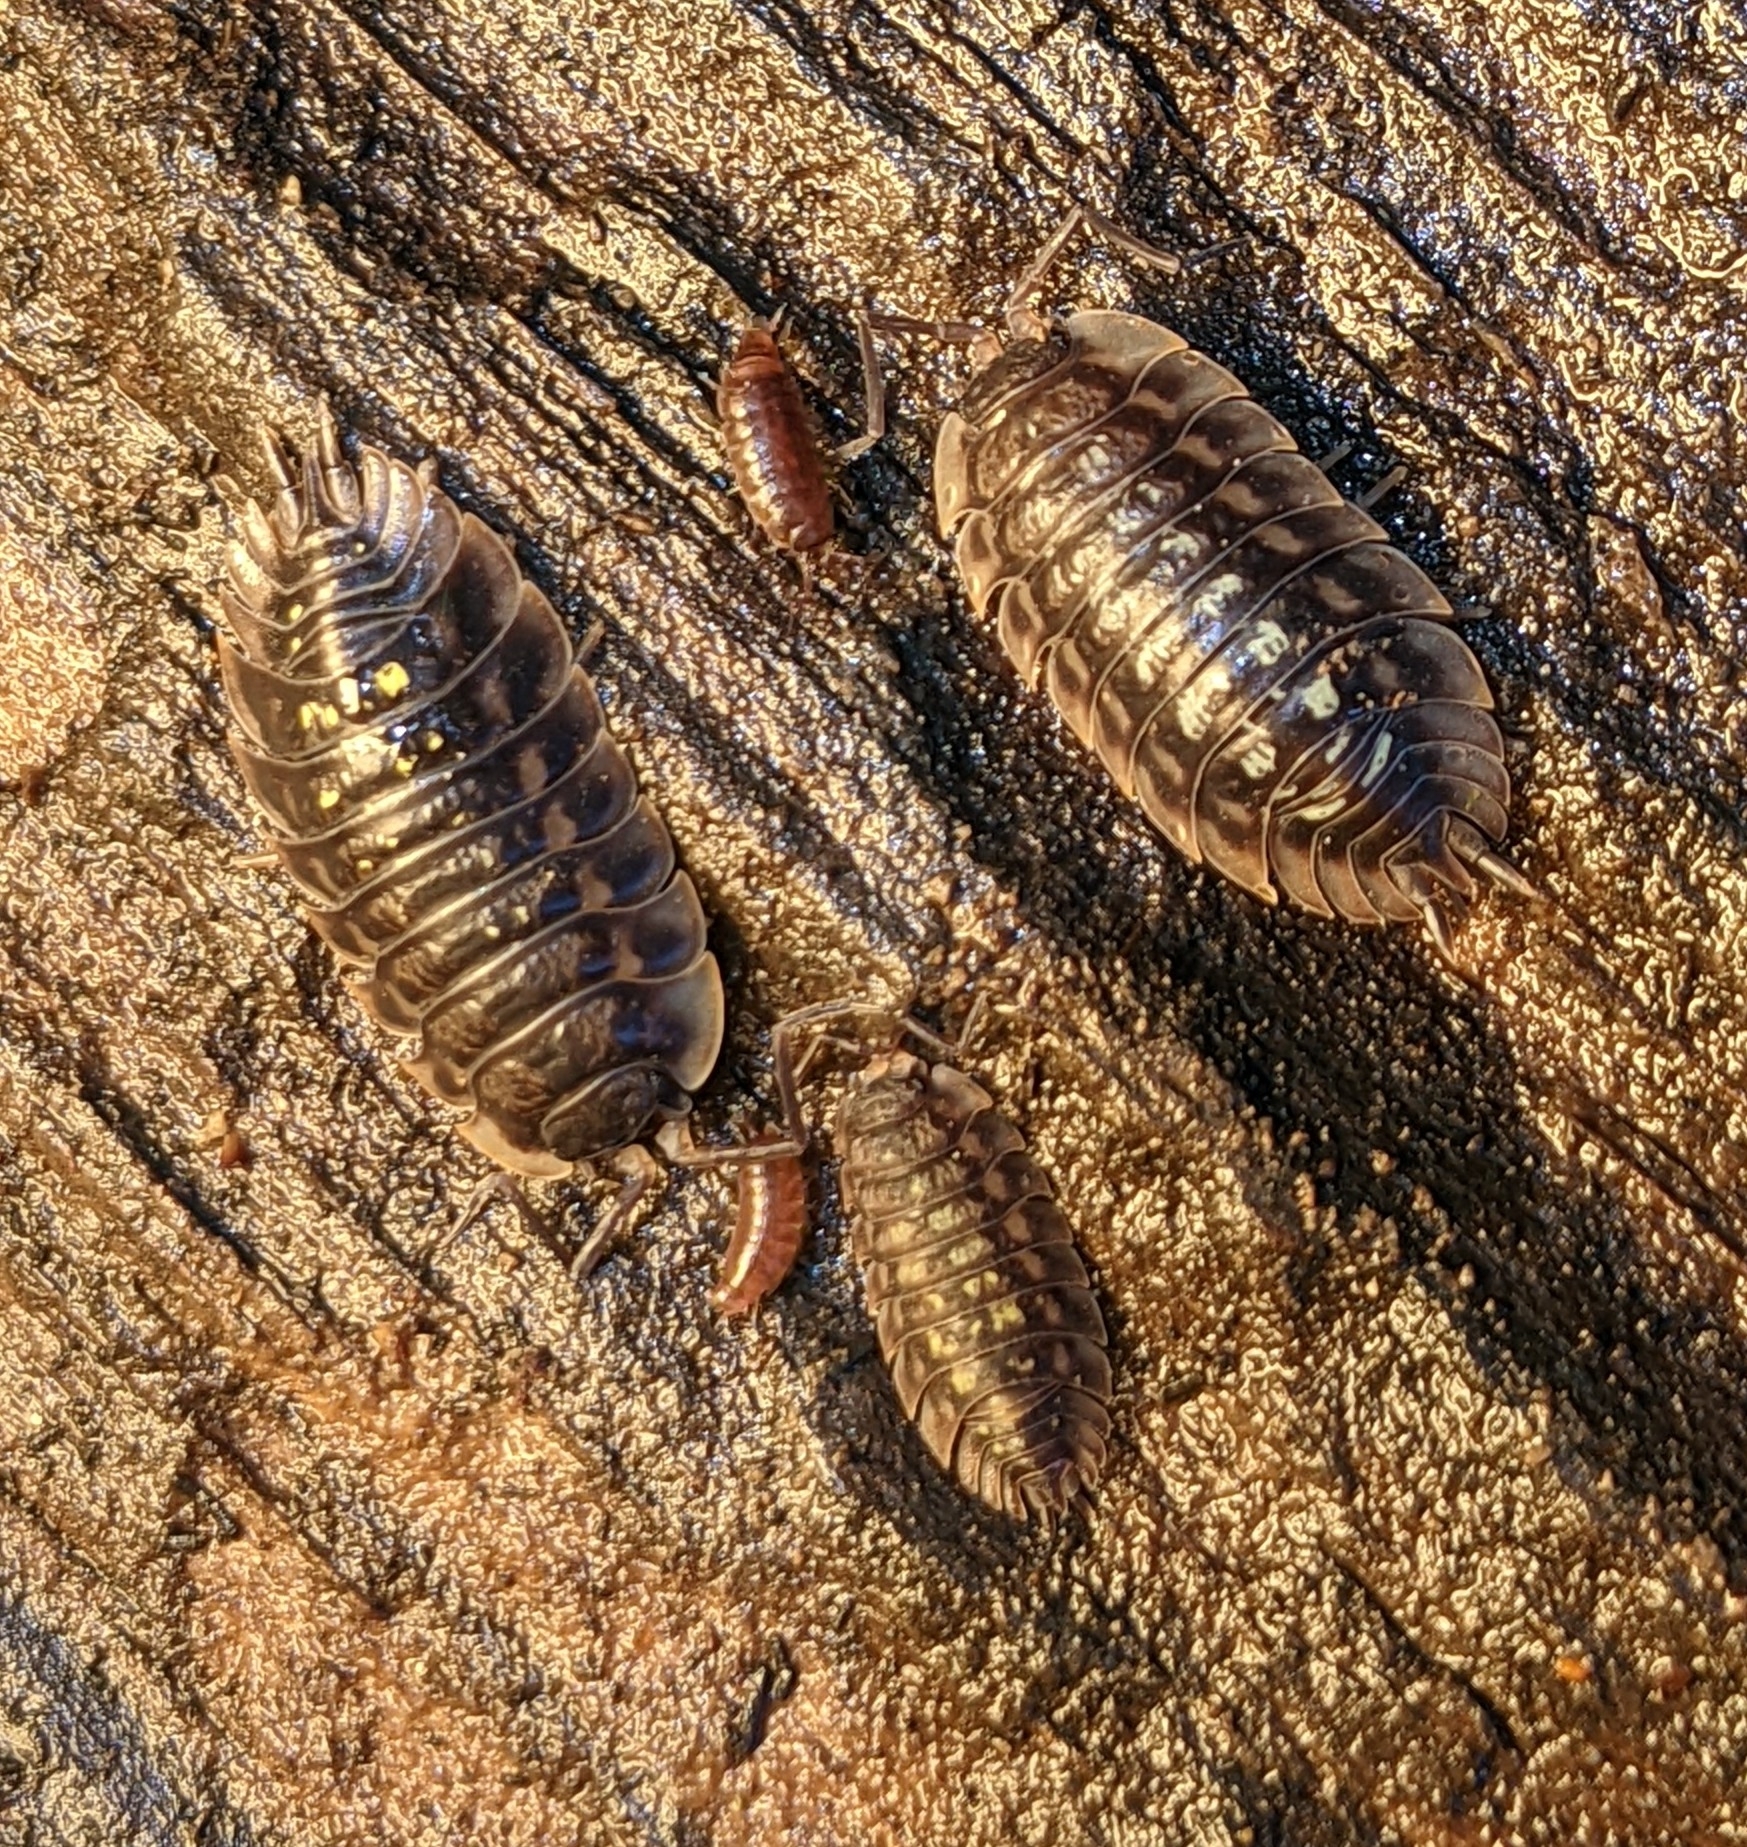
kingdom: Animalia
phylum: Arthropoda
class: Malacostraca
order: Isopoda
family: Oniscidae
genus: Oniscus
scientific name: Oniscus asellus
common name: Common shiny woodlouse
